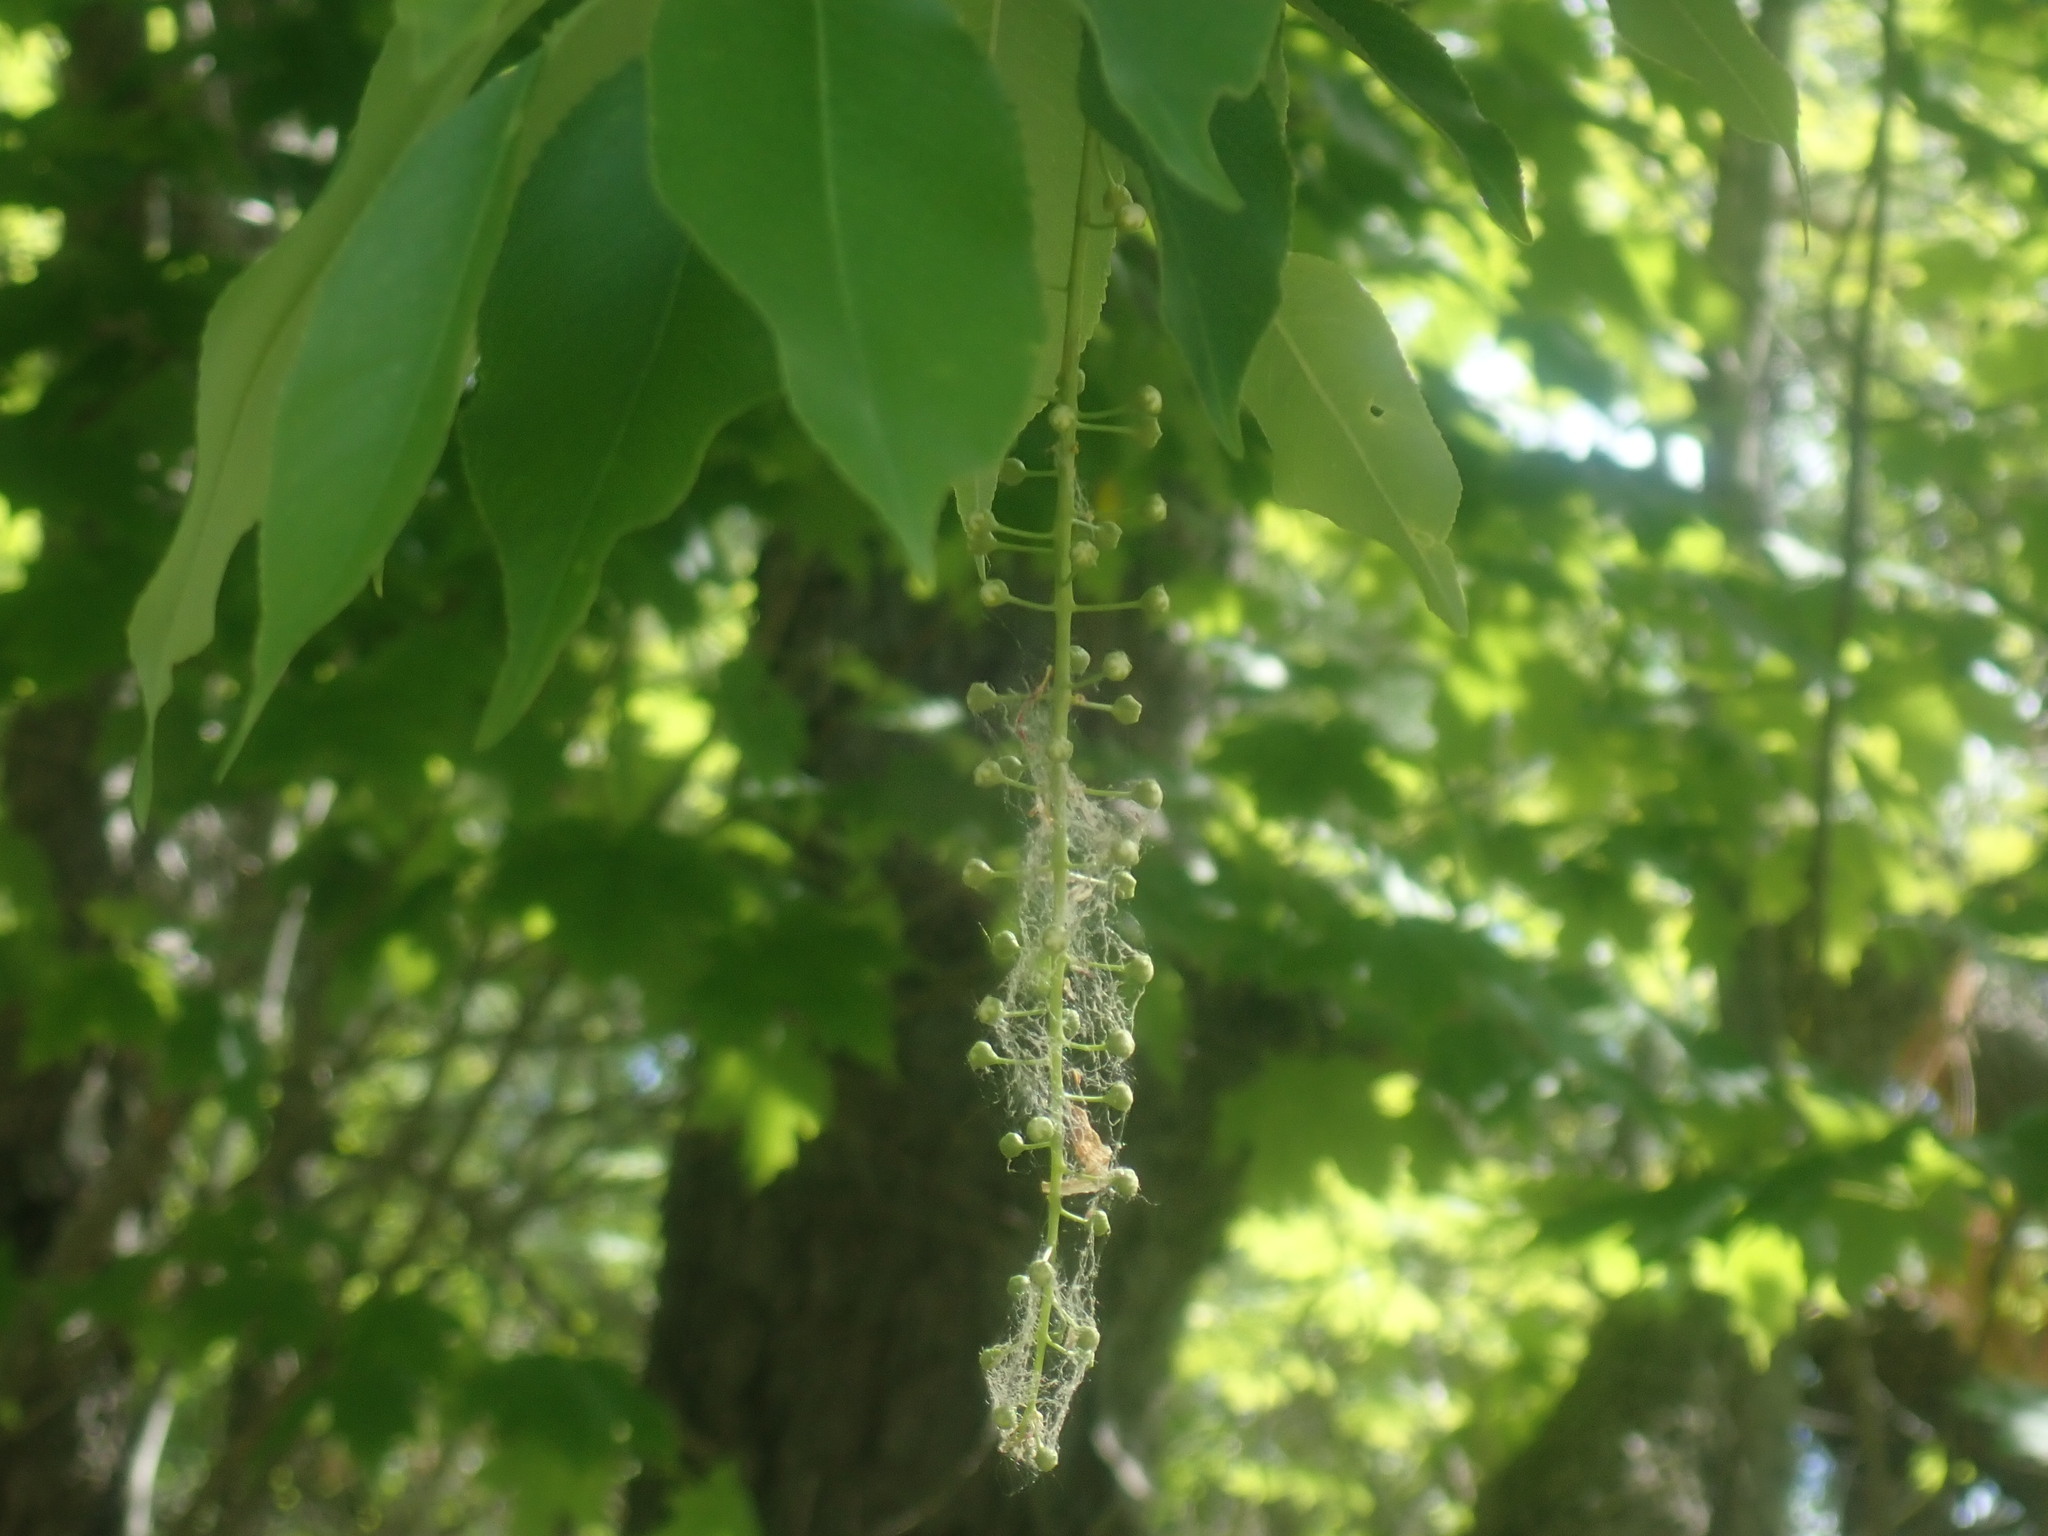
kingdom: Plantae
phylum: Tracheophyta
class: Magnoliopsida
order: Rosales
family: Rosaceae
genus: Prunus
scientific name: Prunus serotina
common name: Black cherry
